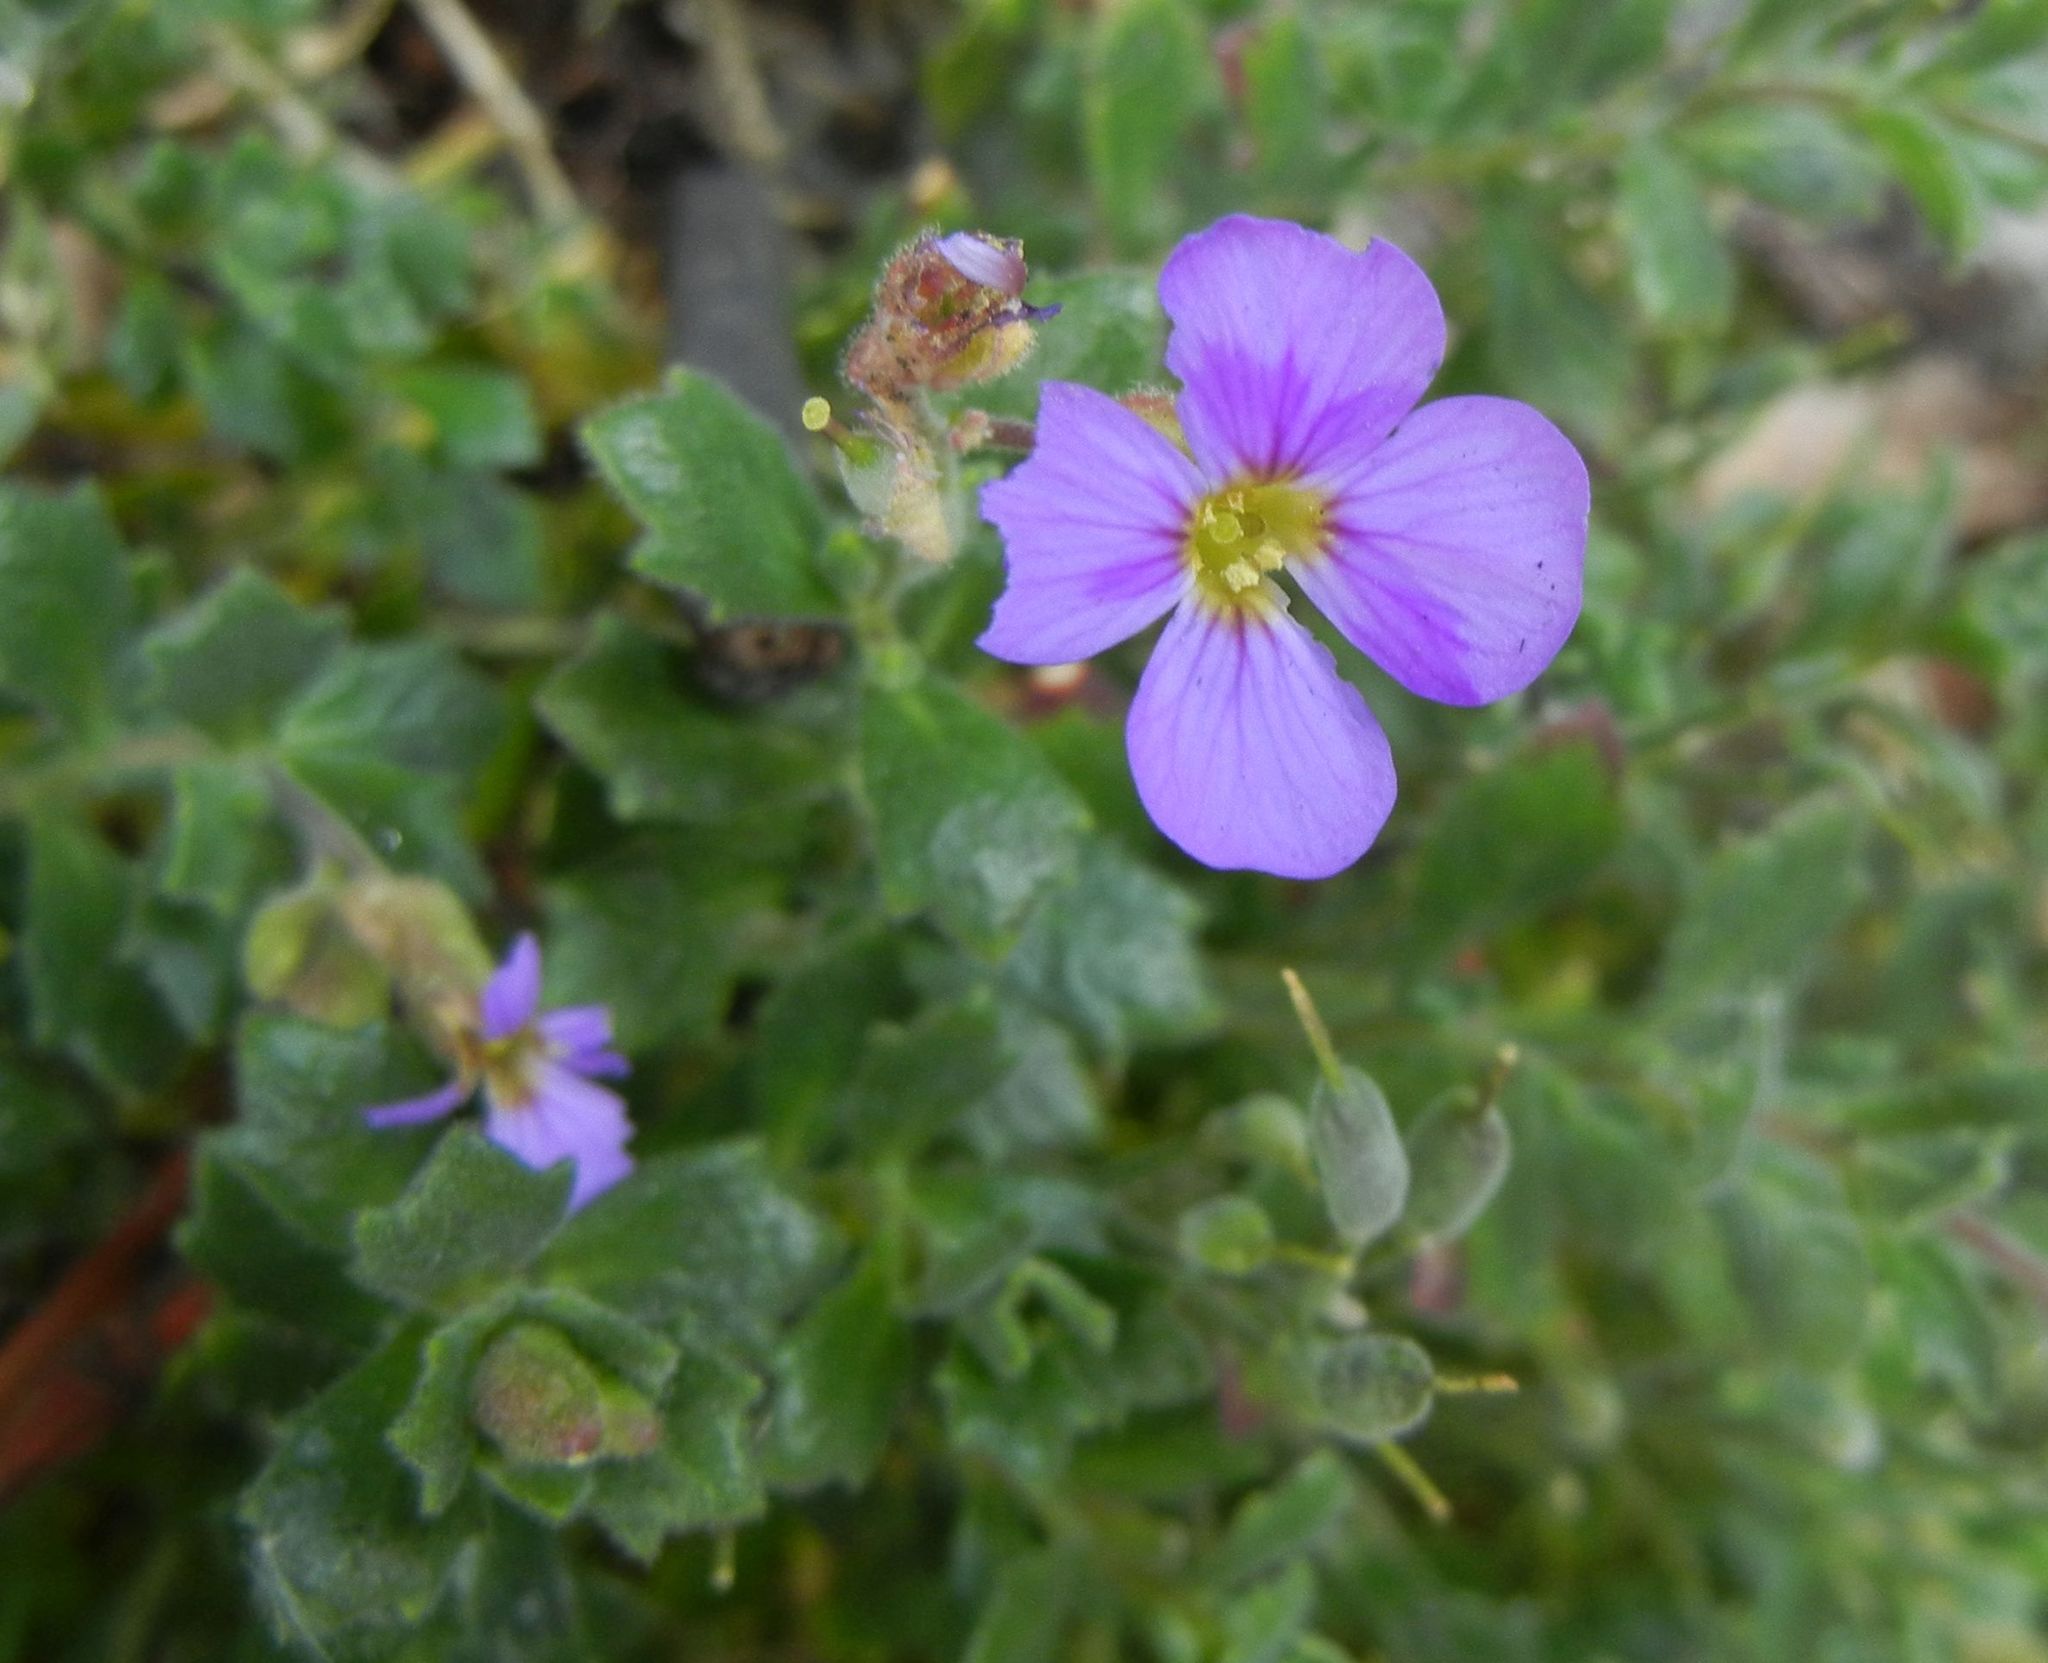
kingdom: Plantae
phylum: Tracheophyta
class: Magnoliopsida
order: Brassicales
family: Brassicaceae
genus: Aubrieta
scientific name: Aubrieta deltoidea
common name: Aubretia
